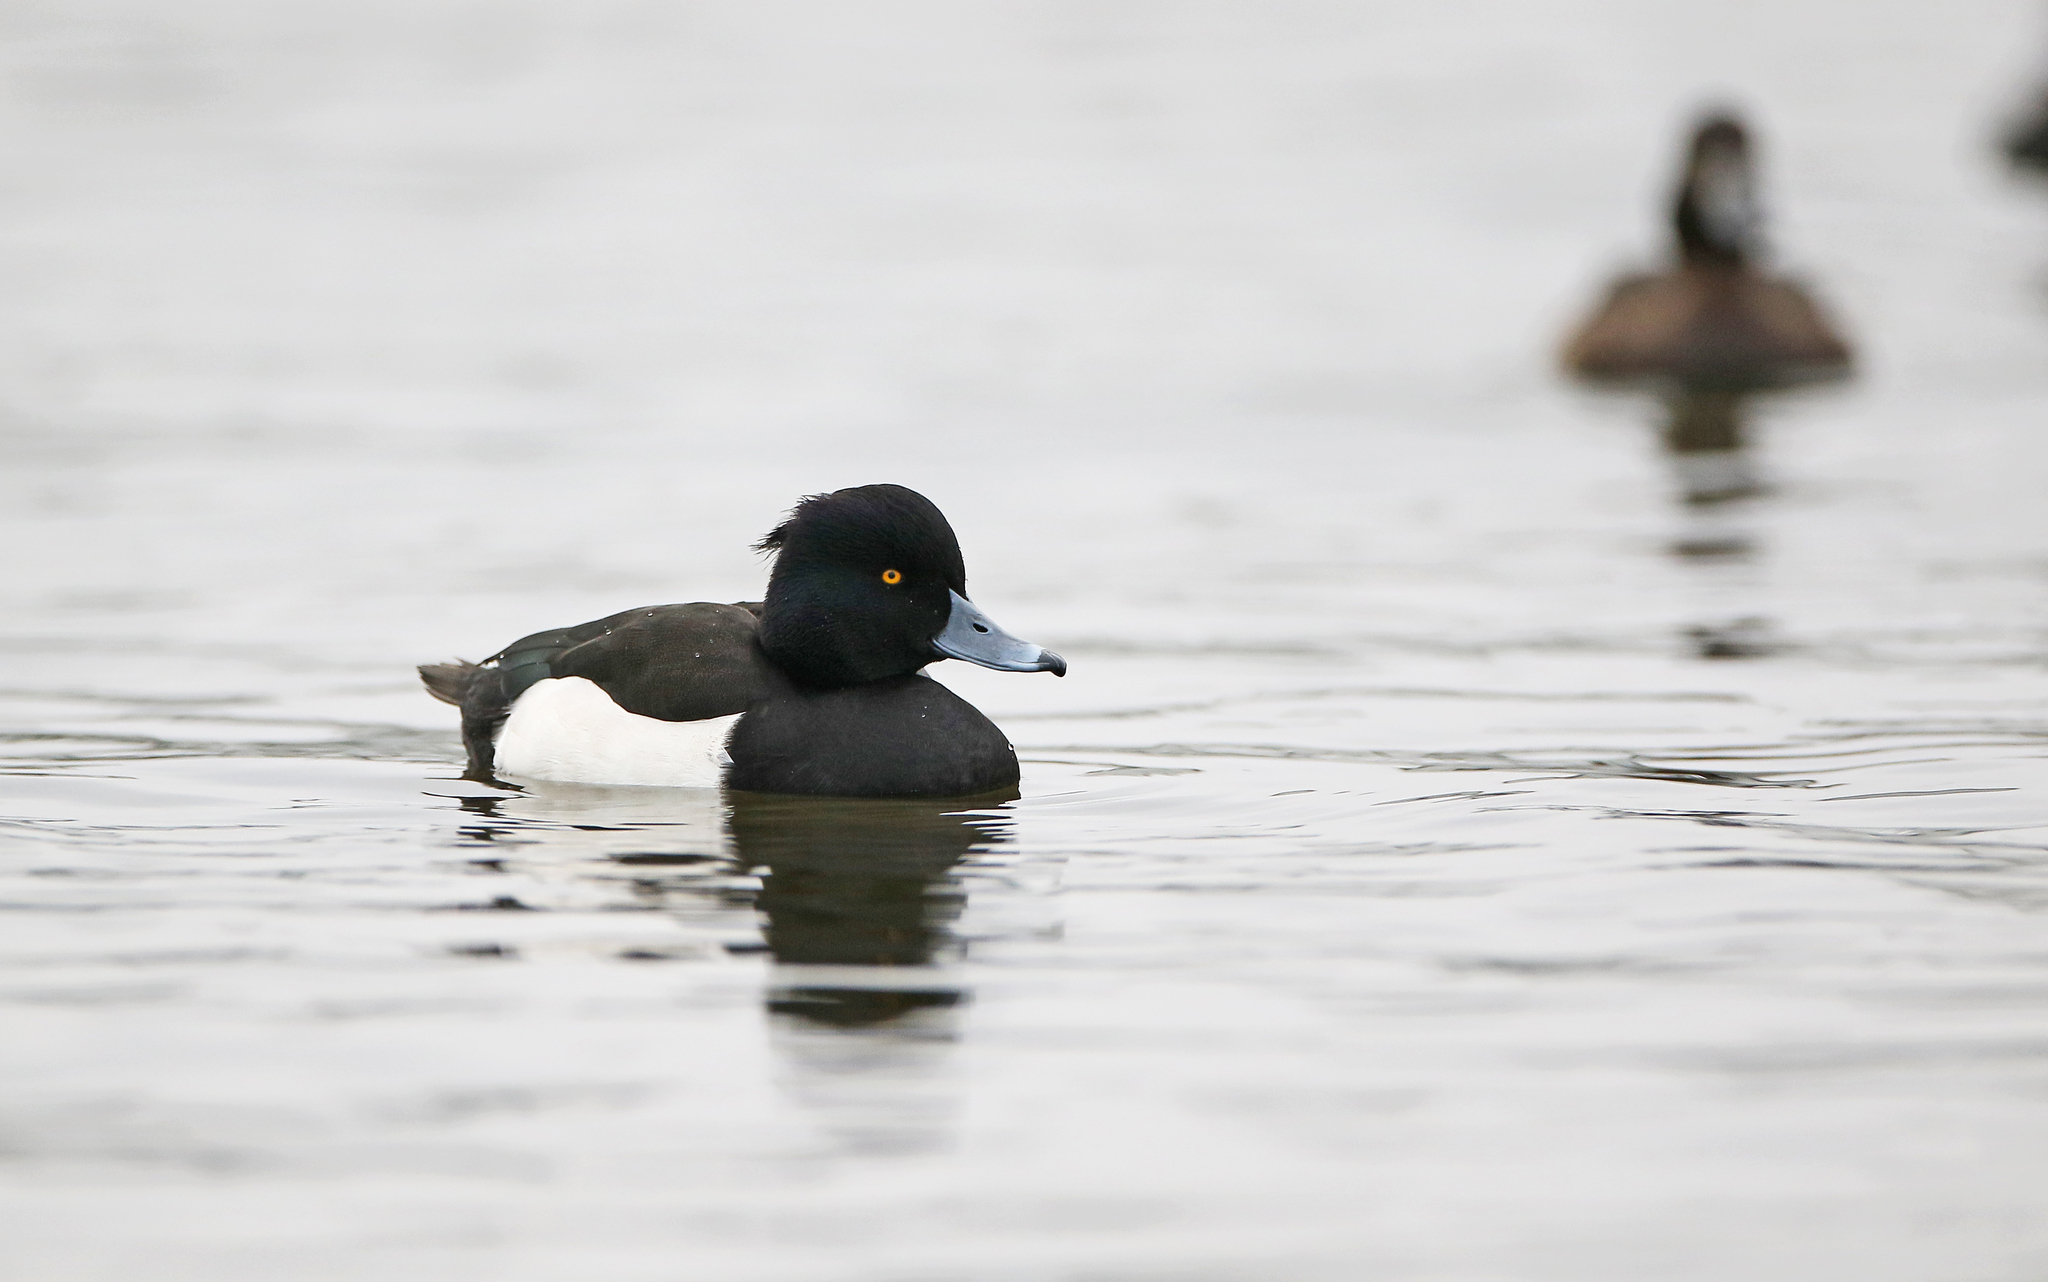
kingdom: Animalia
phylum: Chordata
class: Aves
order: Anseriformes
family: Anatidae
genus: Aythya
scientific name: Aythya fuligula
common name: Tufted duck
